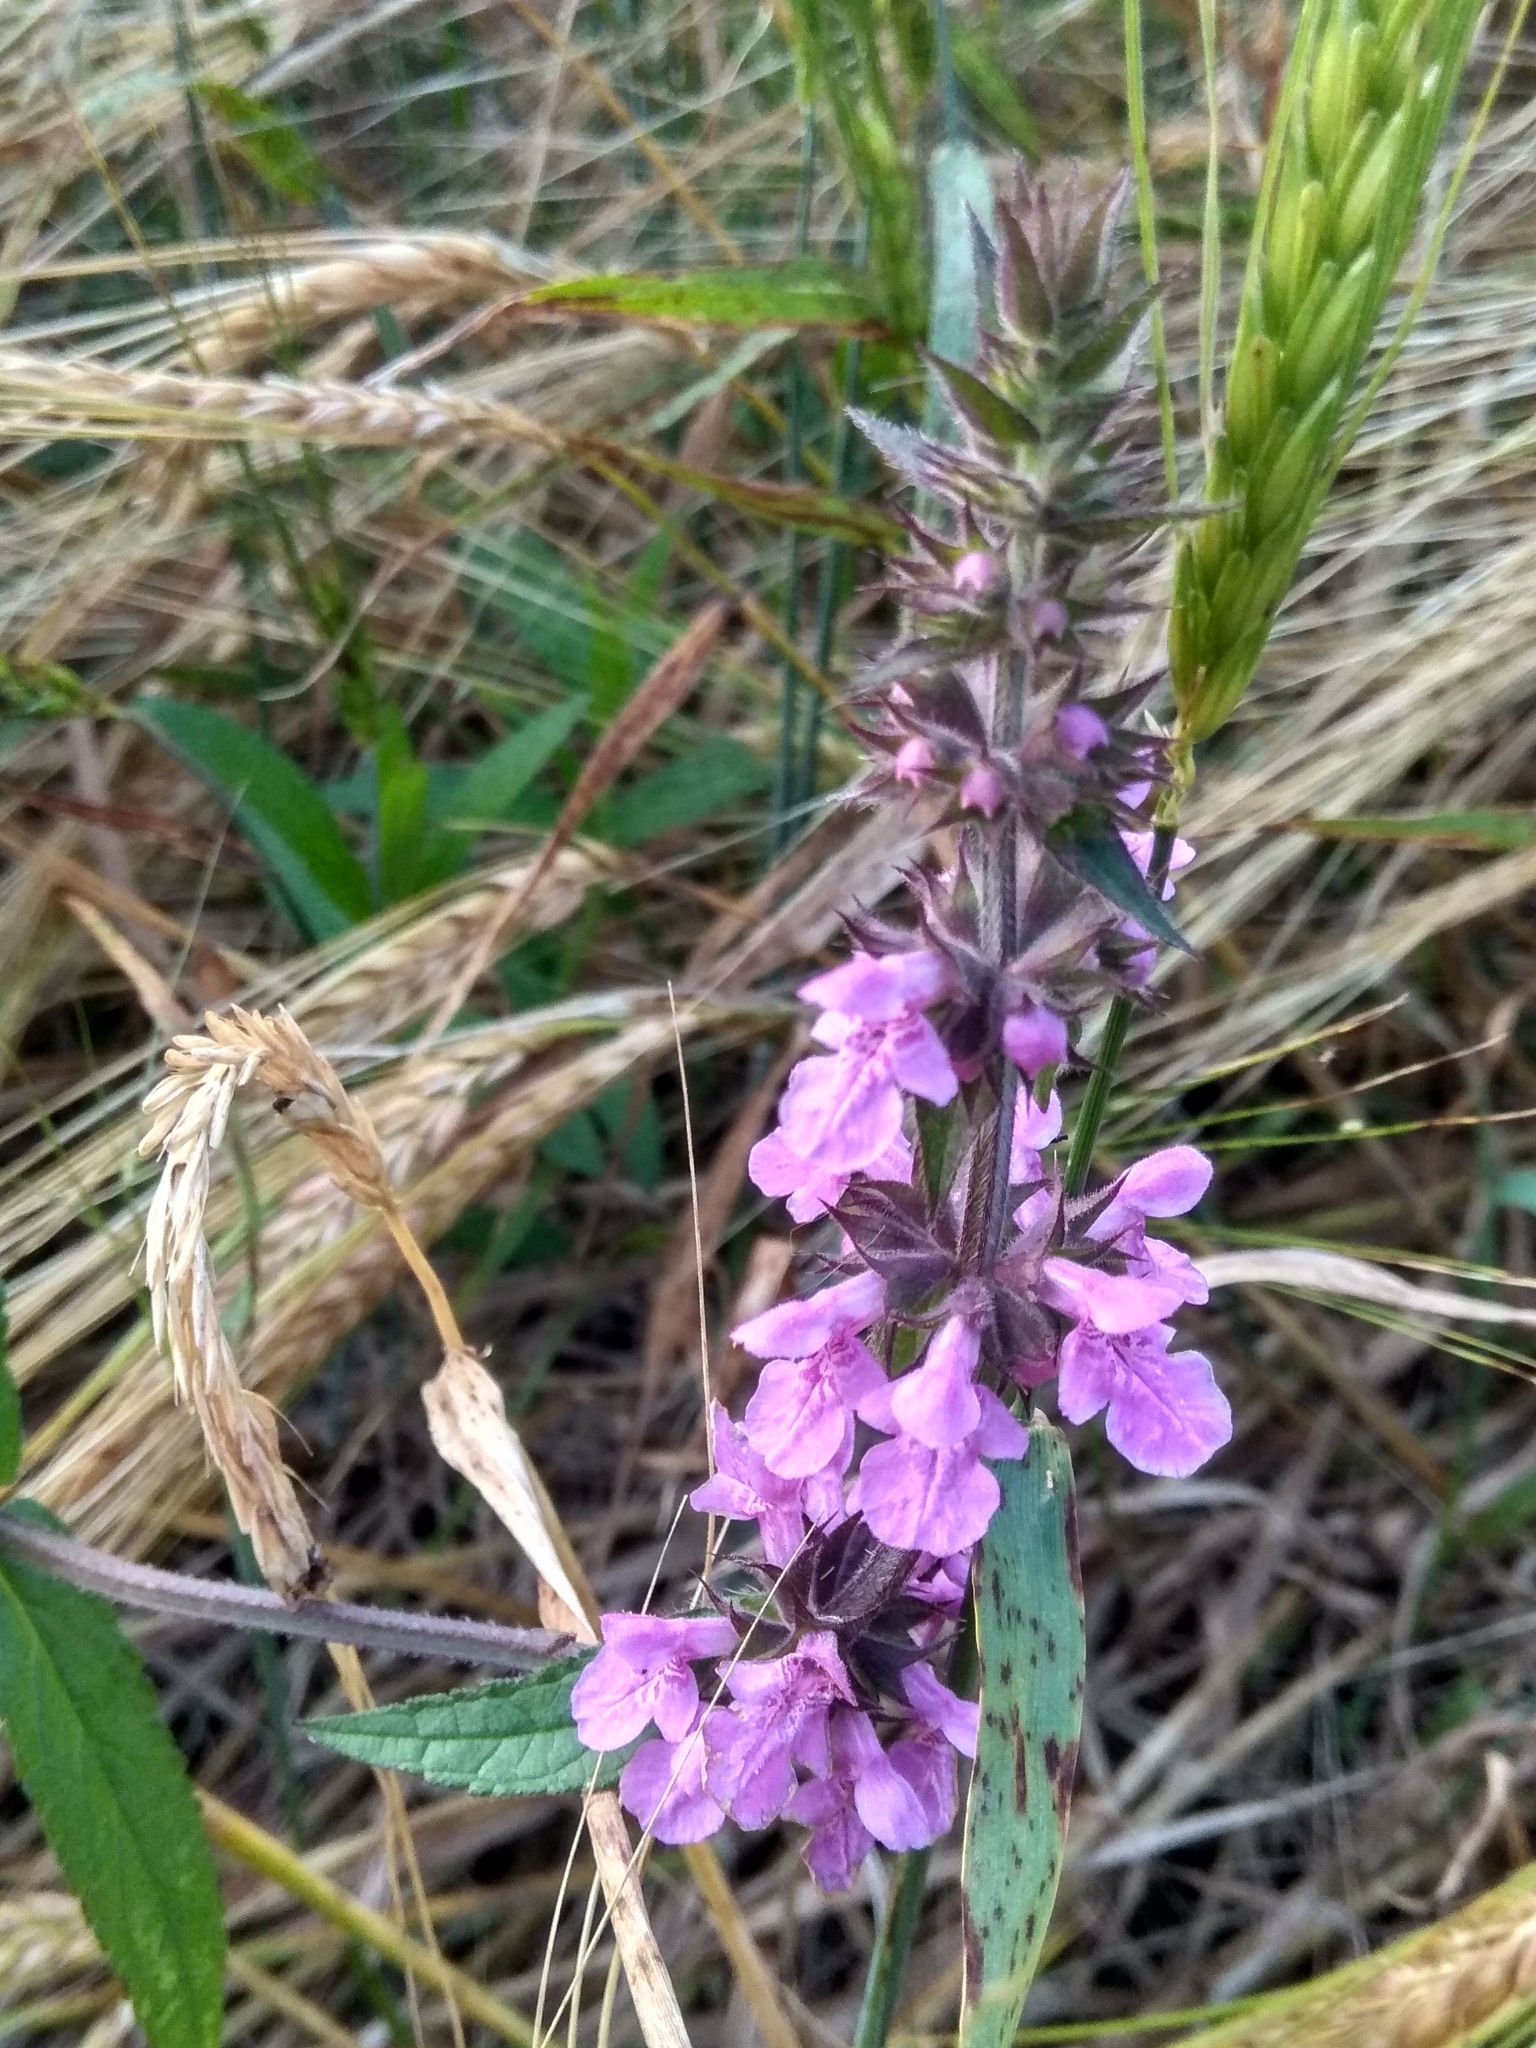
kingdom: Plantae
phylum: Tracheophyta
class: Magnoliopsida
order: Lamiales
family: Lamiaceae
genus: Stachys
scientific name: Stachys palustris
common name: Marsh woundwort
